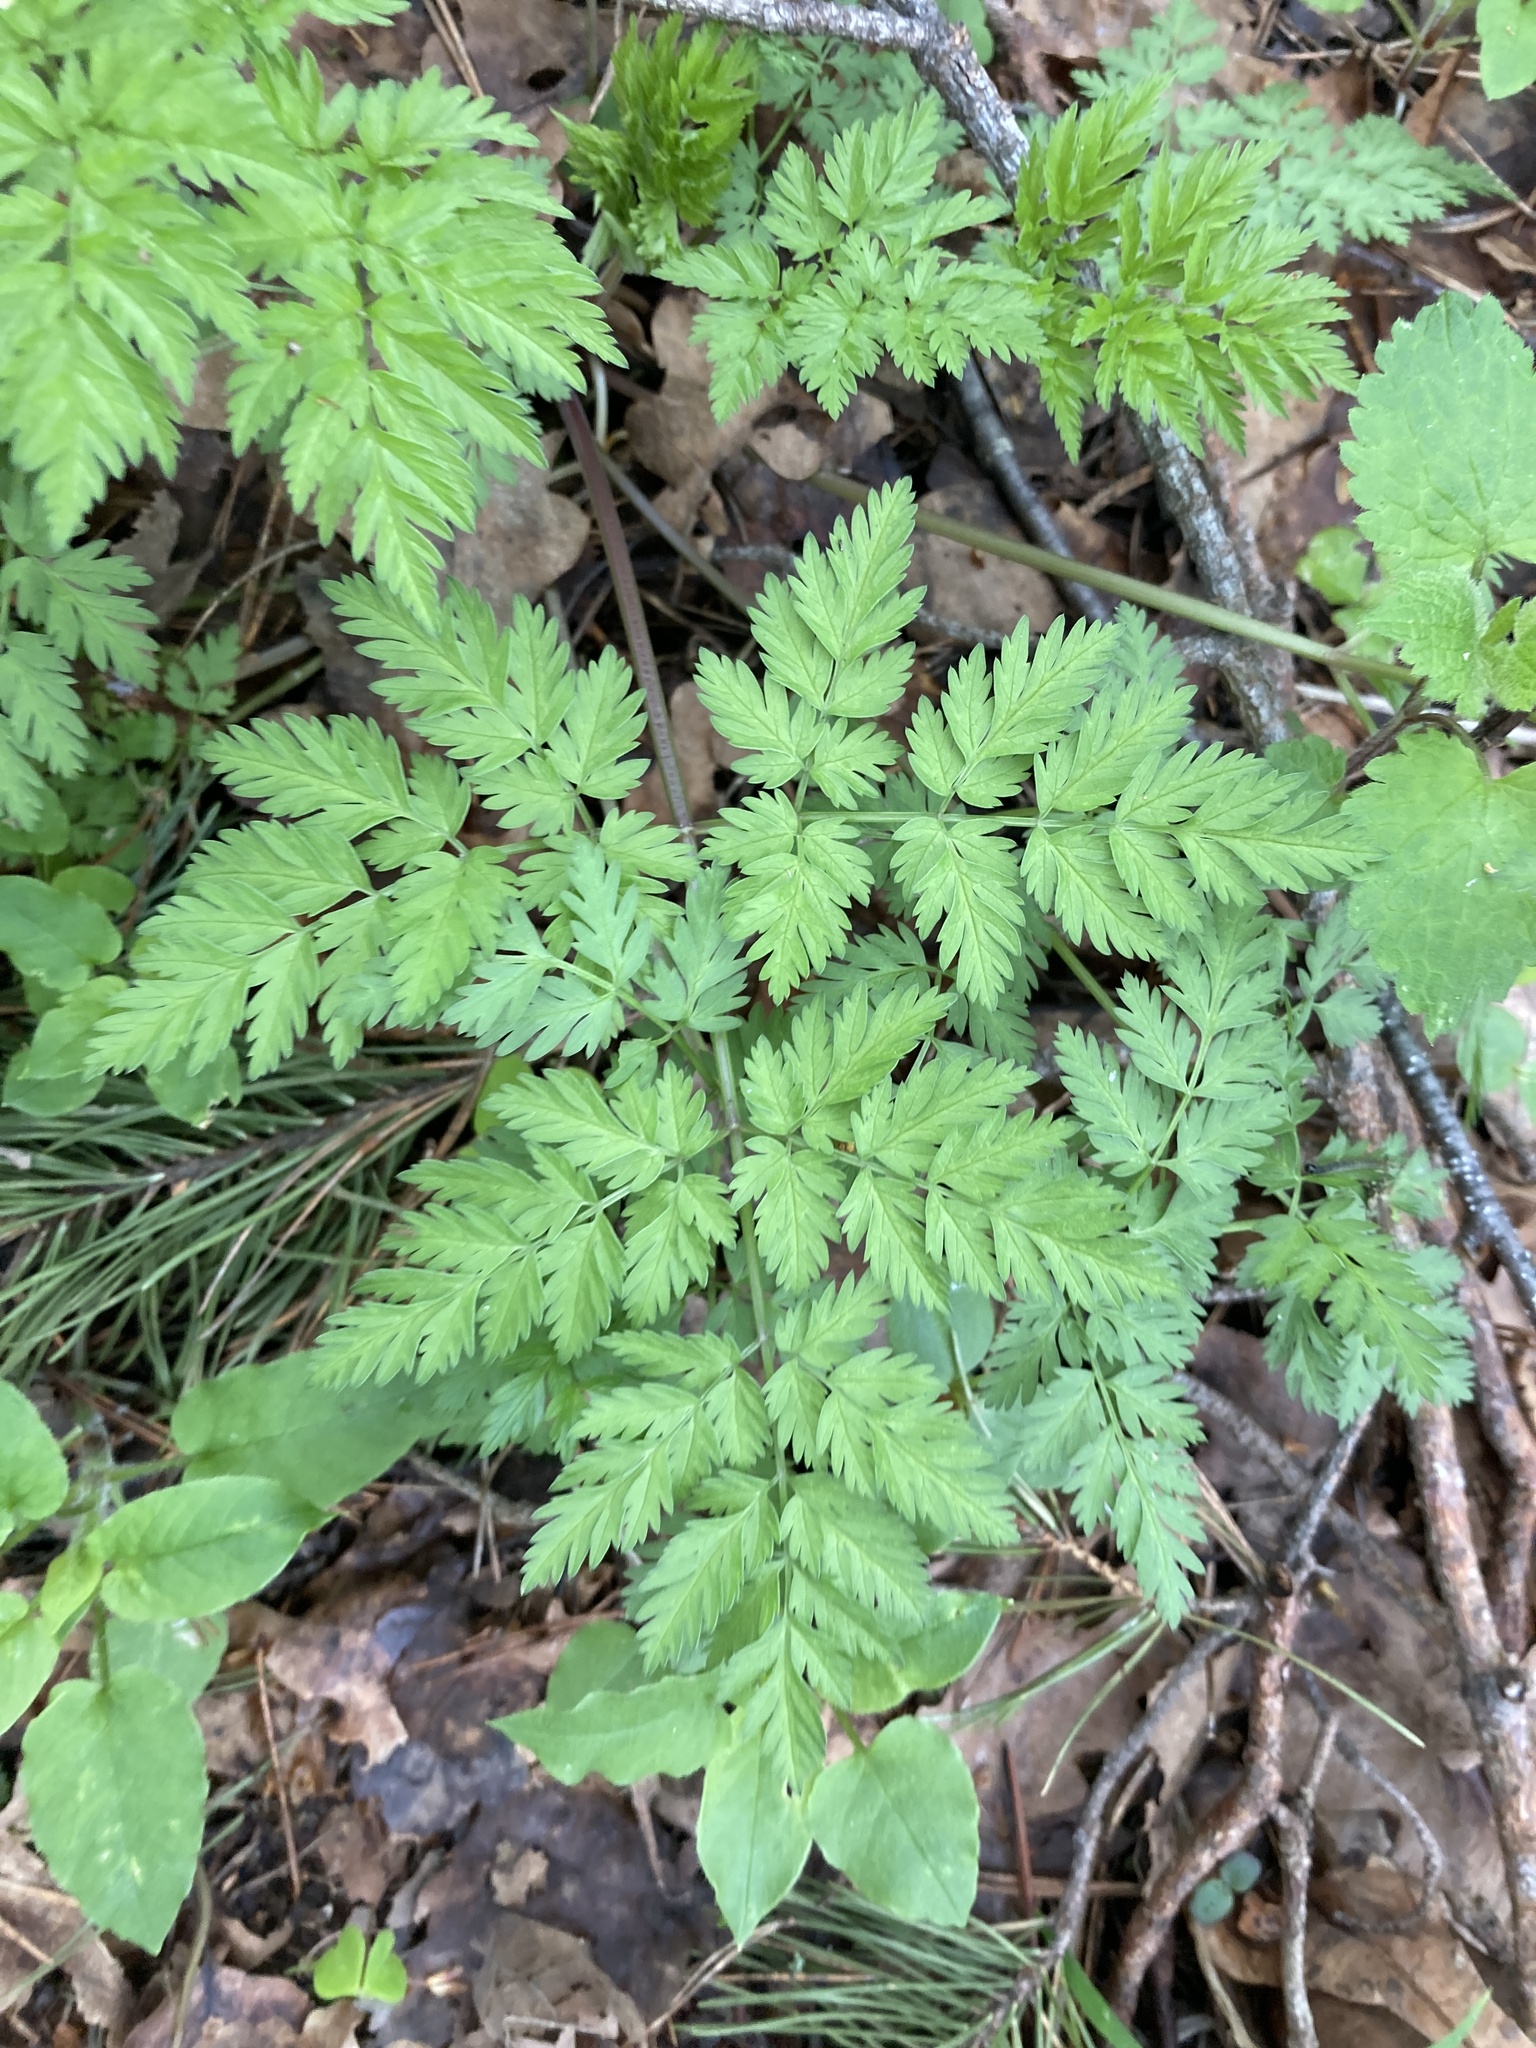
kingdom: Plantae
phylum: Tracheophyta
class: Magnoliopsida
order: Apiales
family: Apiaceae
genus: Anthriscus
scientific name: Anthriscus sylvestris
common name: Cow parsley
